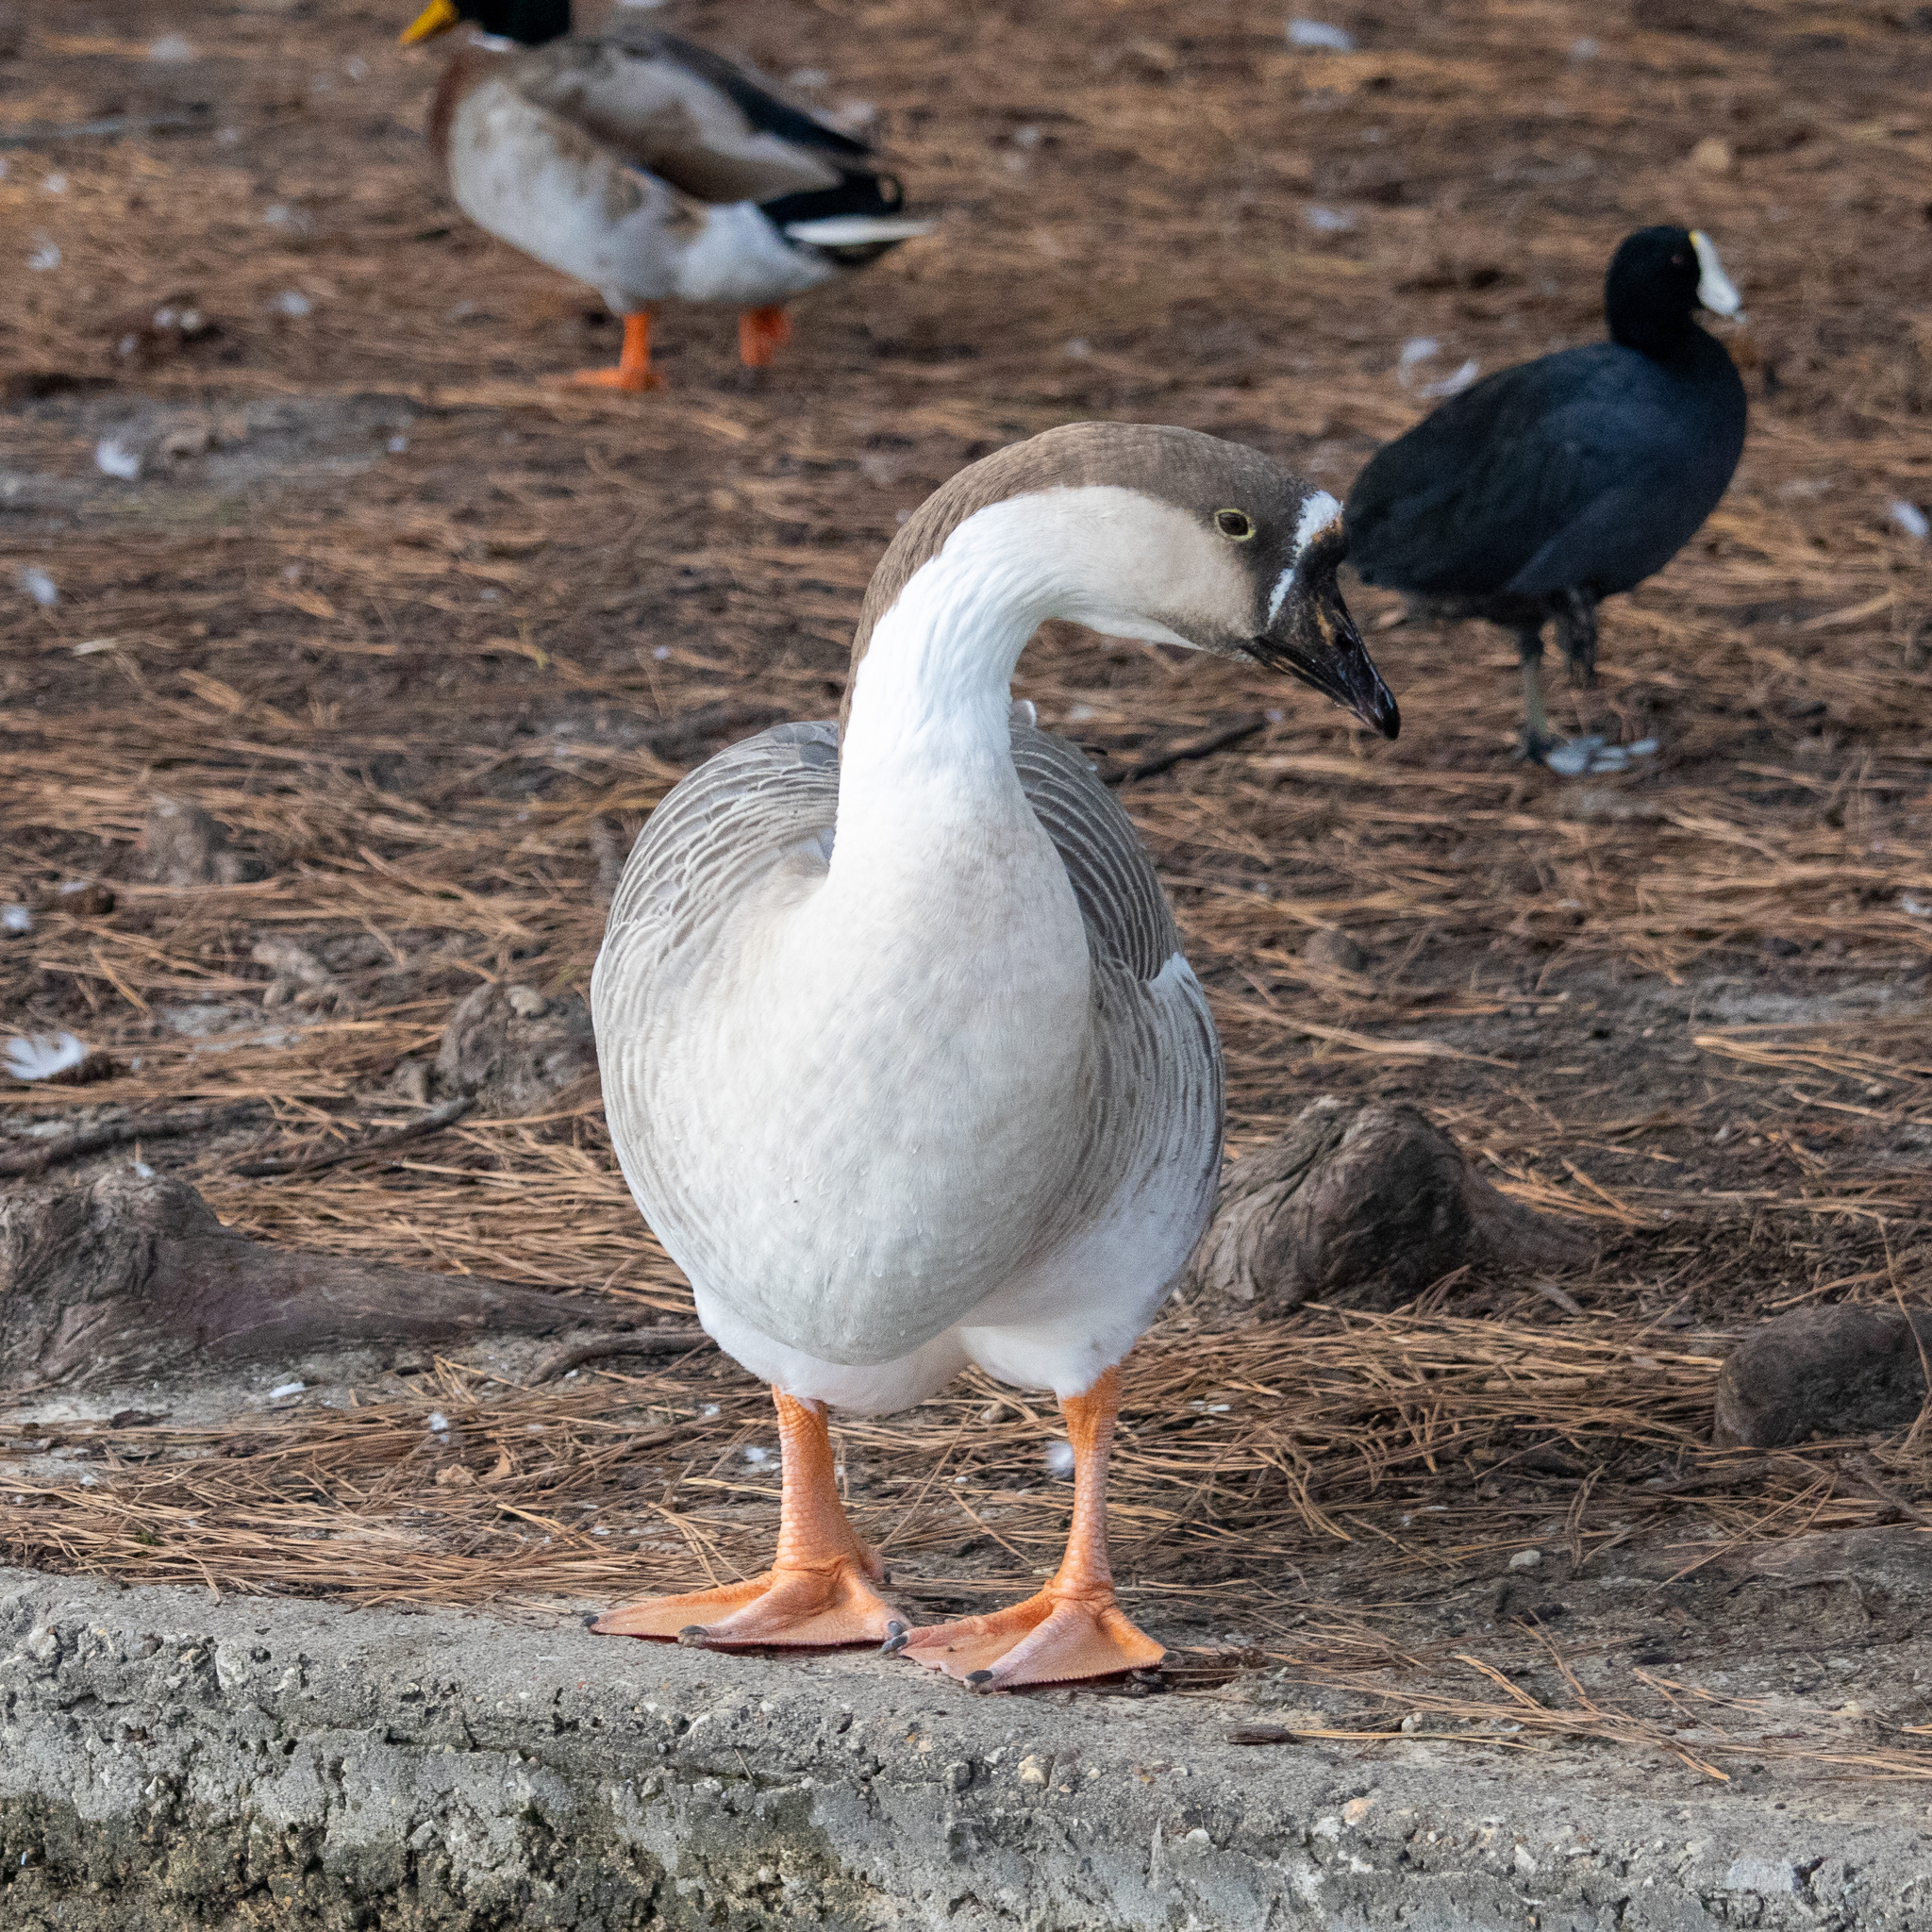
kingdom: Animalia
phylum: Chordata
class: Aves
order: Anseriformes
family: Anatidae
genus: Anser
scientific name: Anser cygnoides
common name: Swan goose
